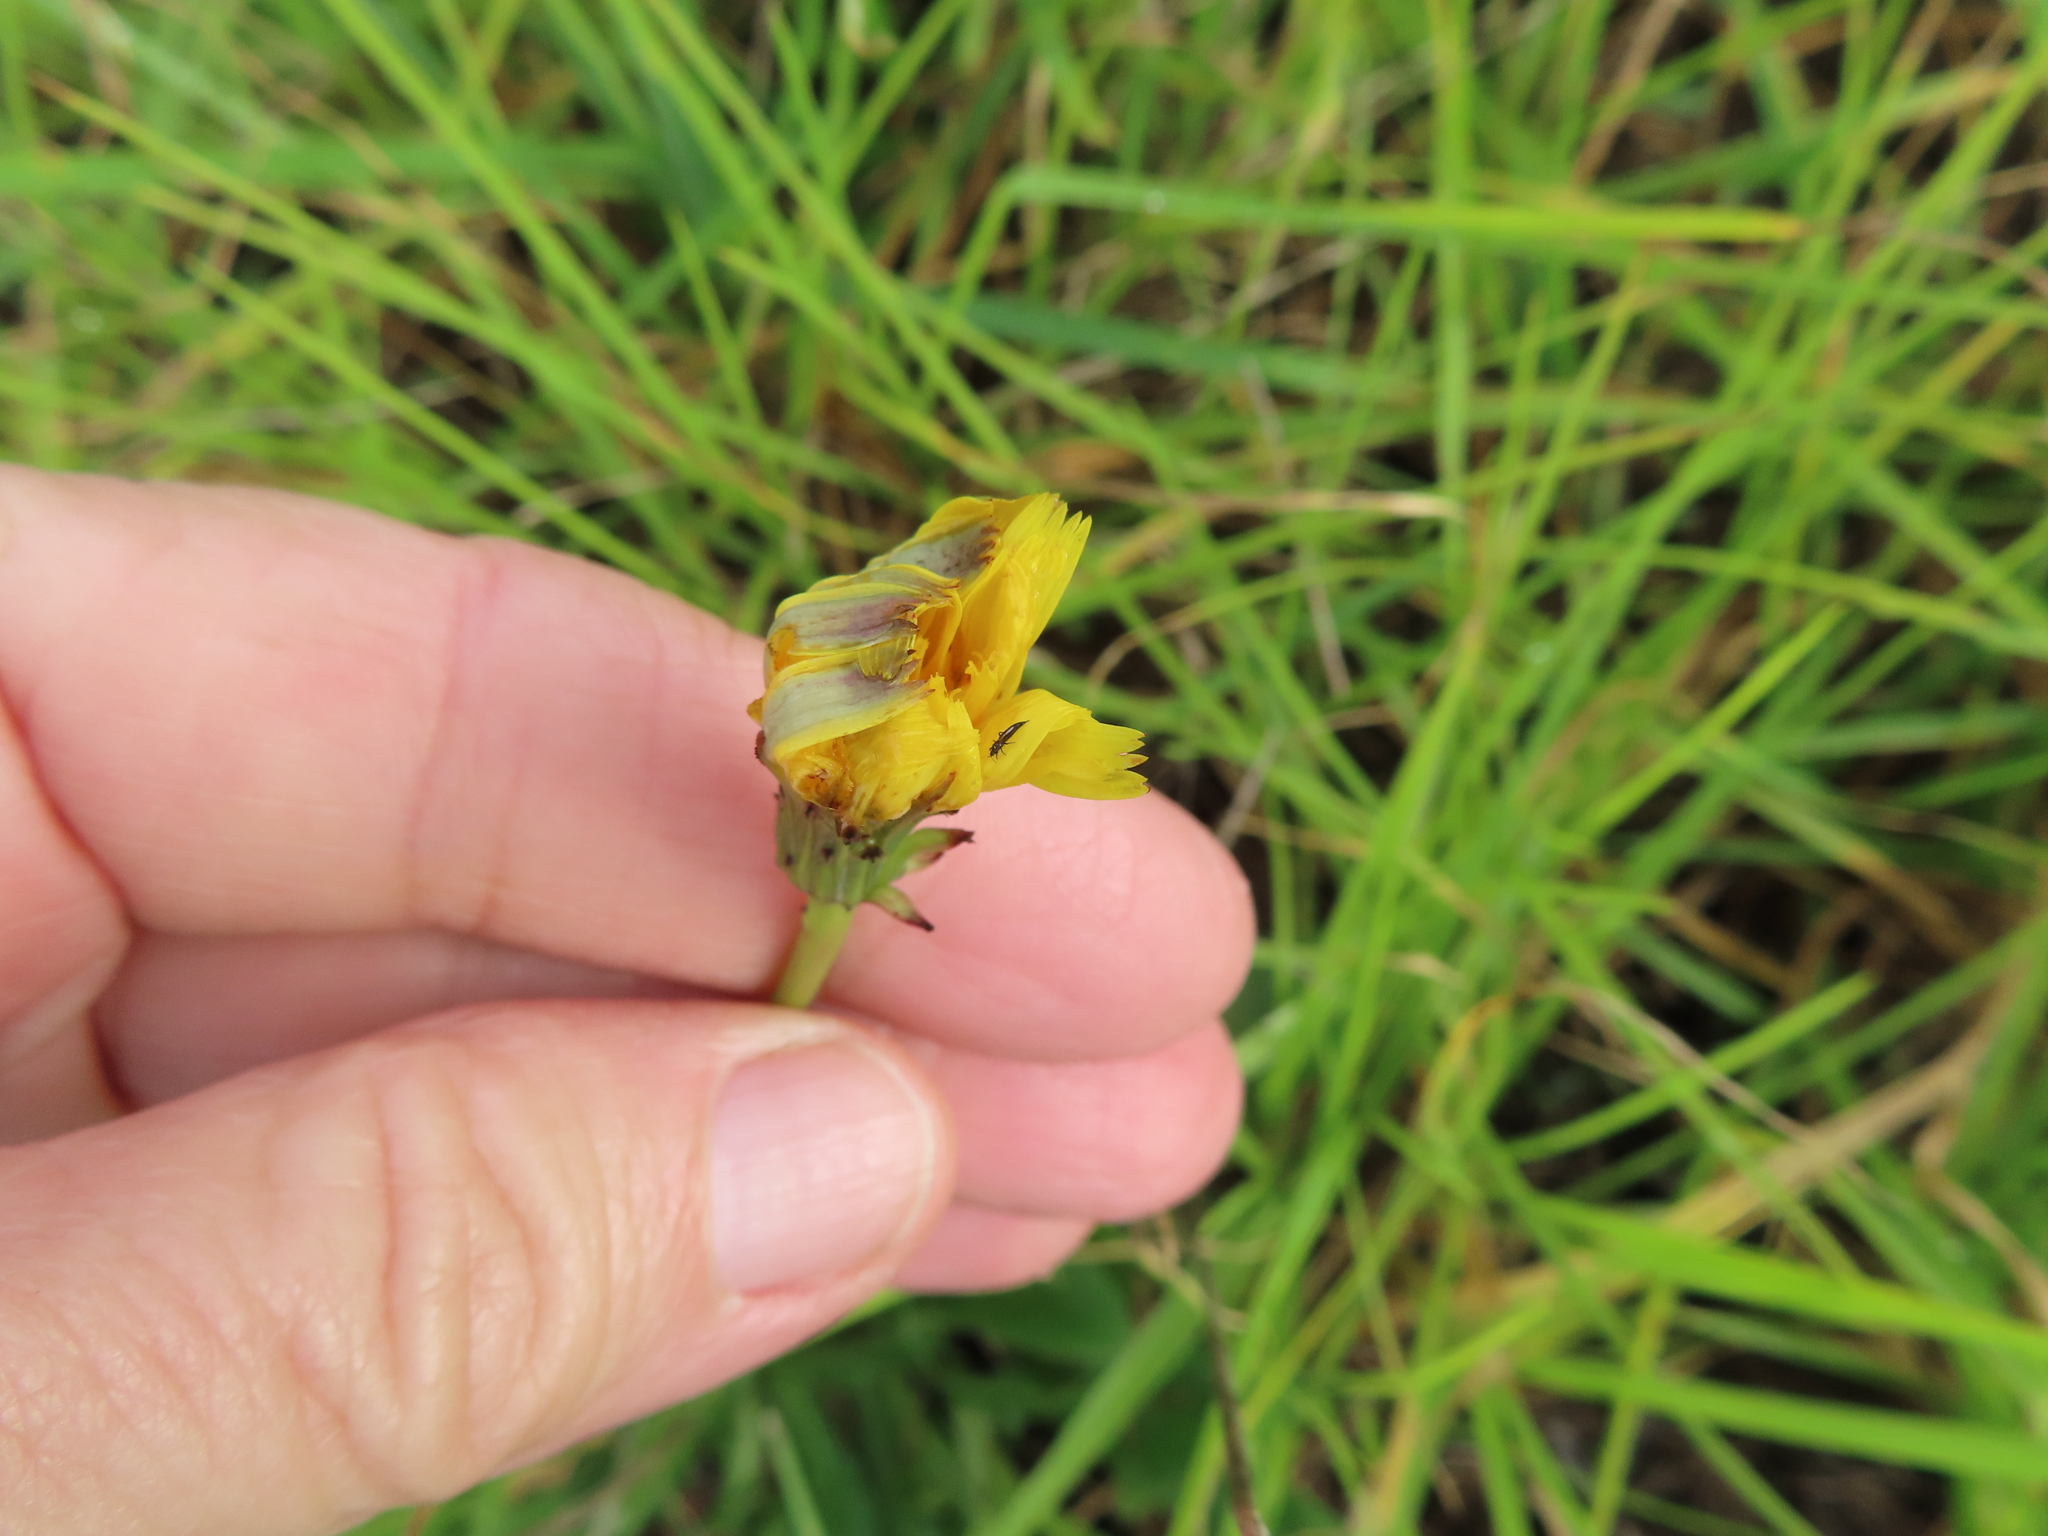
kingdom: Plantae
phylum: Tracheophyta
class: Magnoliopsida
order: Asterales
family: Asteraceae
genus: Hypochaeris
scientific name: Hypochaeris radicata
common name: Flatweed
